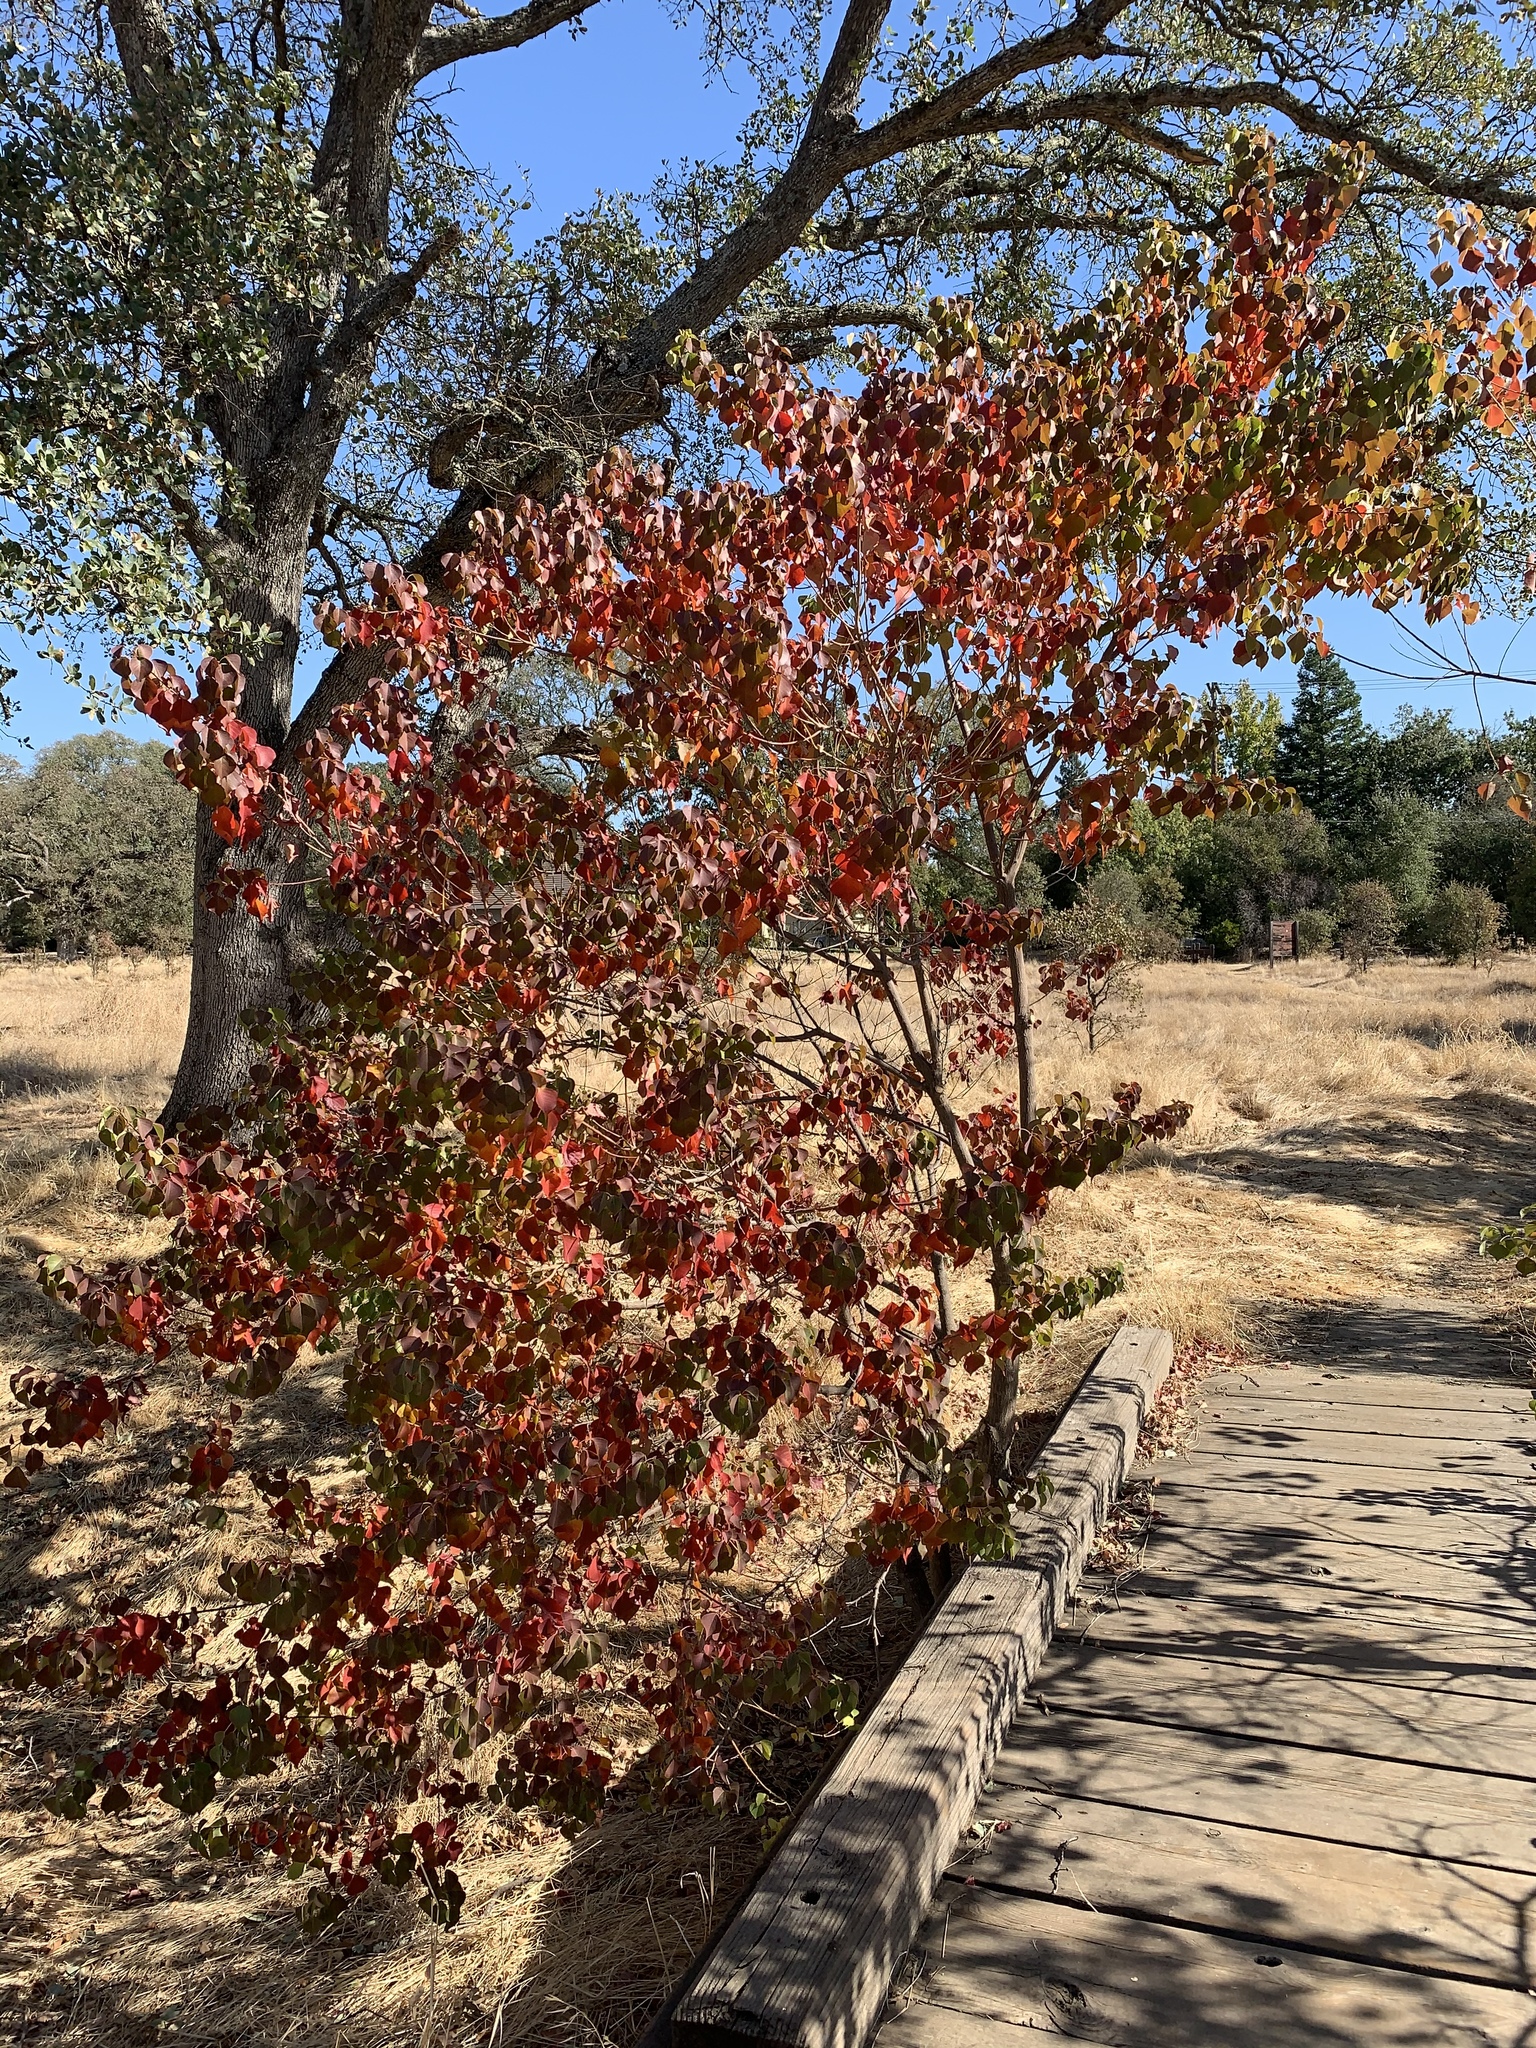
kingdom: Plantae
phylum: Tracheophyta
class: Magnoliopsida
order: Malpighiales
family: Euphorbiaceae
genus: Triadica
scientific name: Triadica sebifera
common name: Chinese tallow
